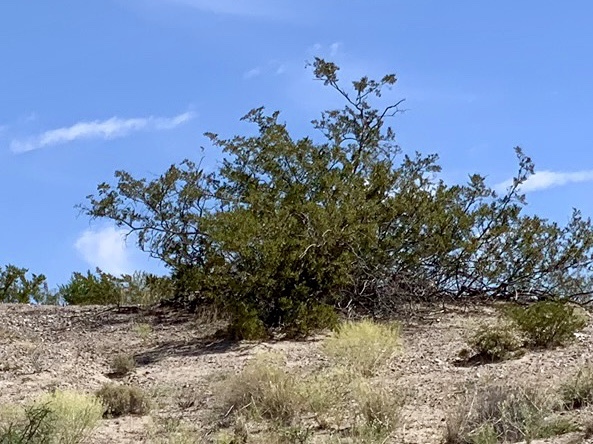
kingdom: Plantae
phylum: Tracheophyta
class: Magnoliopsida
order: Zygophyllales
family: Zygophyllaceae
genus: Larrea
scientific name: Larrea tridentata
